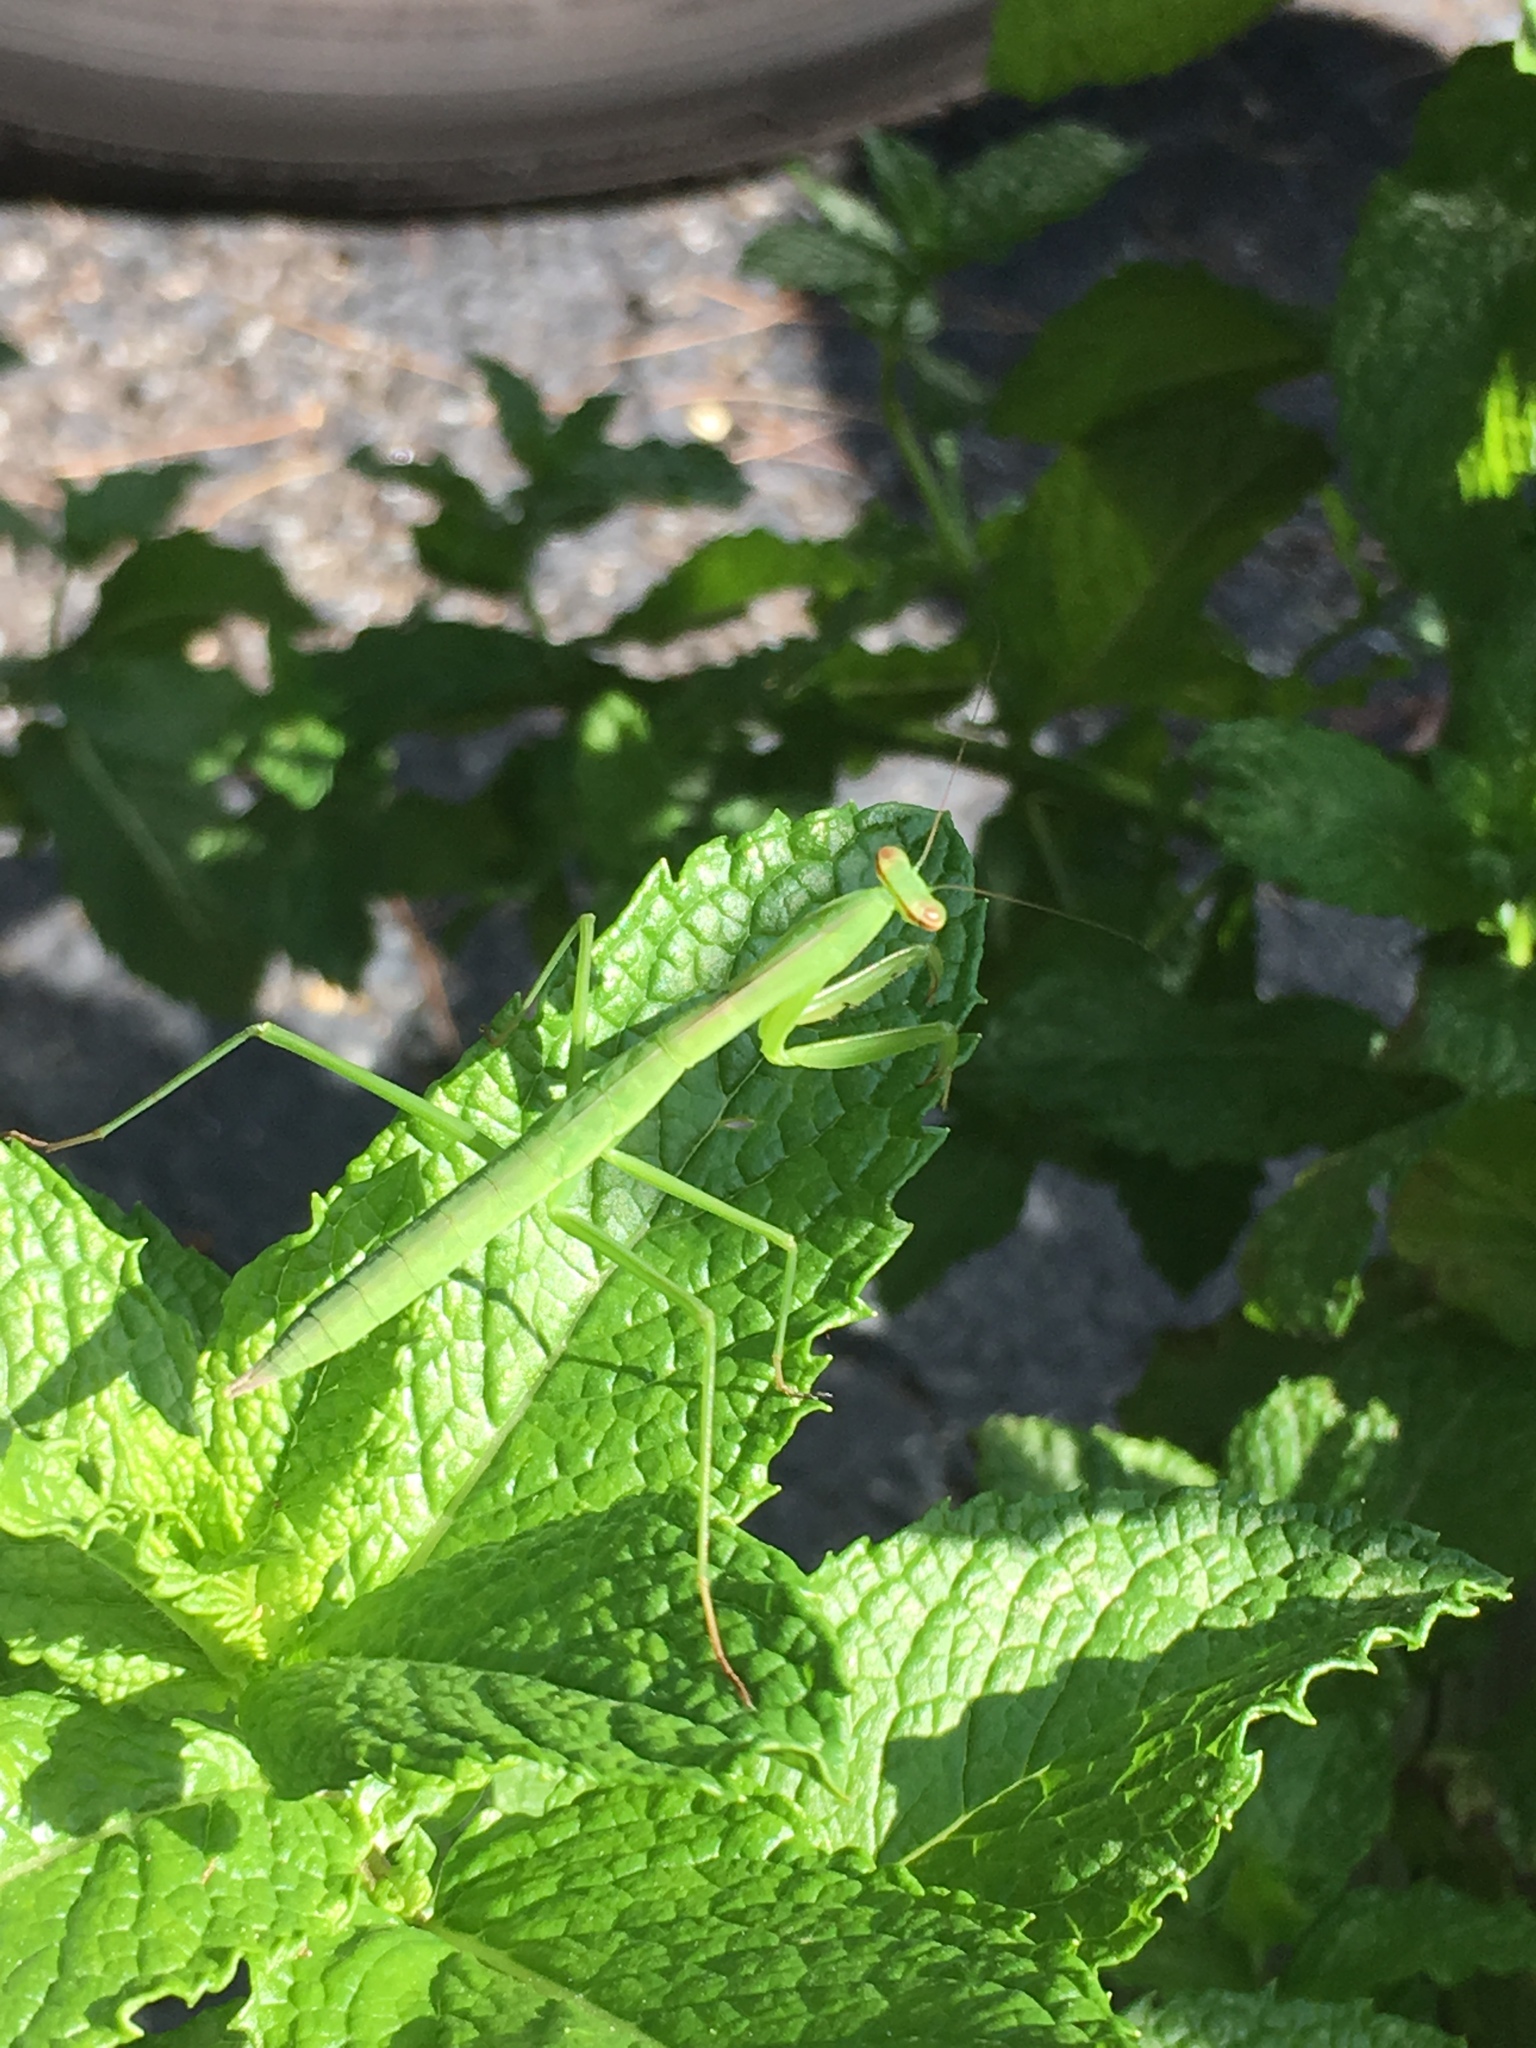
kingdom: Animalia
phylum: Arthropoda
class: Insecta
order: Mantodea
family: Mantidae
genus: Tenodera
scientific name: Tenodera sinensis
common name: Chinese mantis
